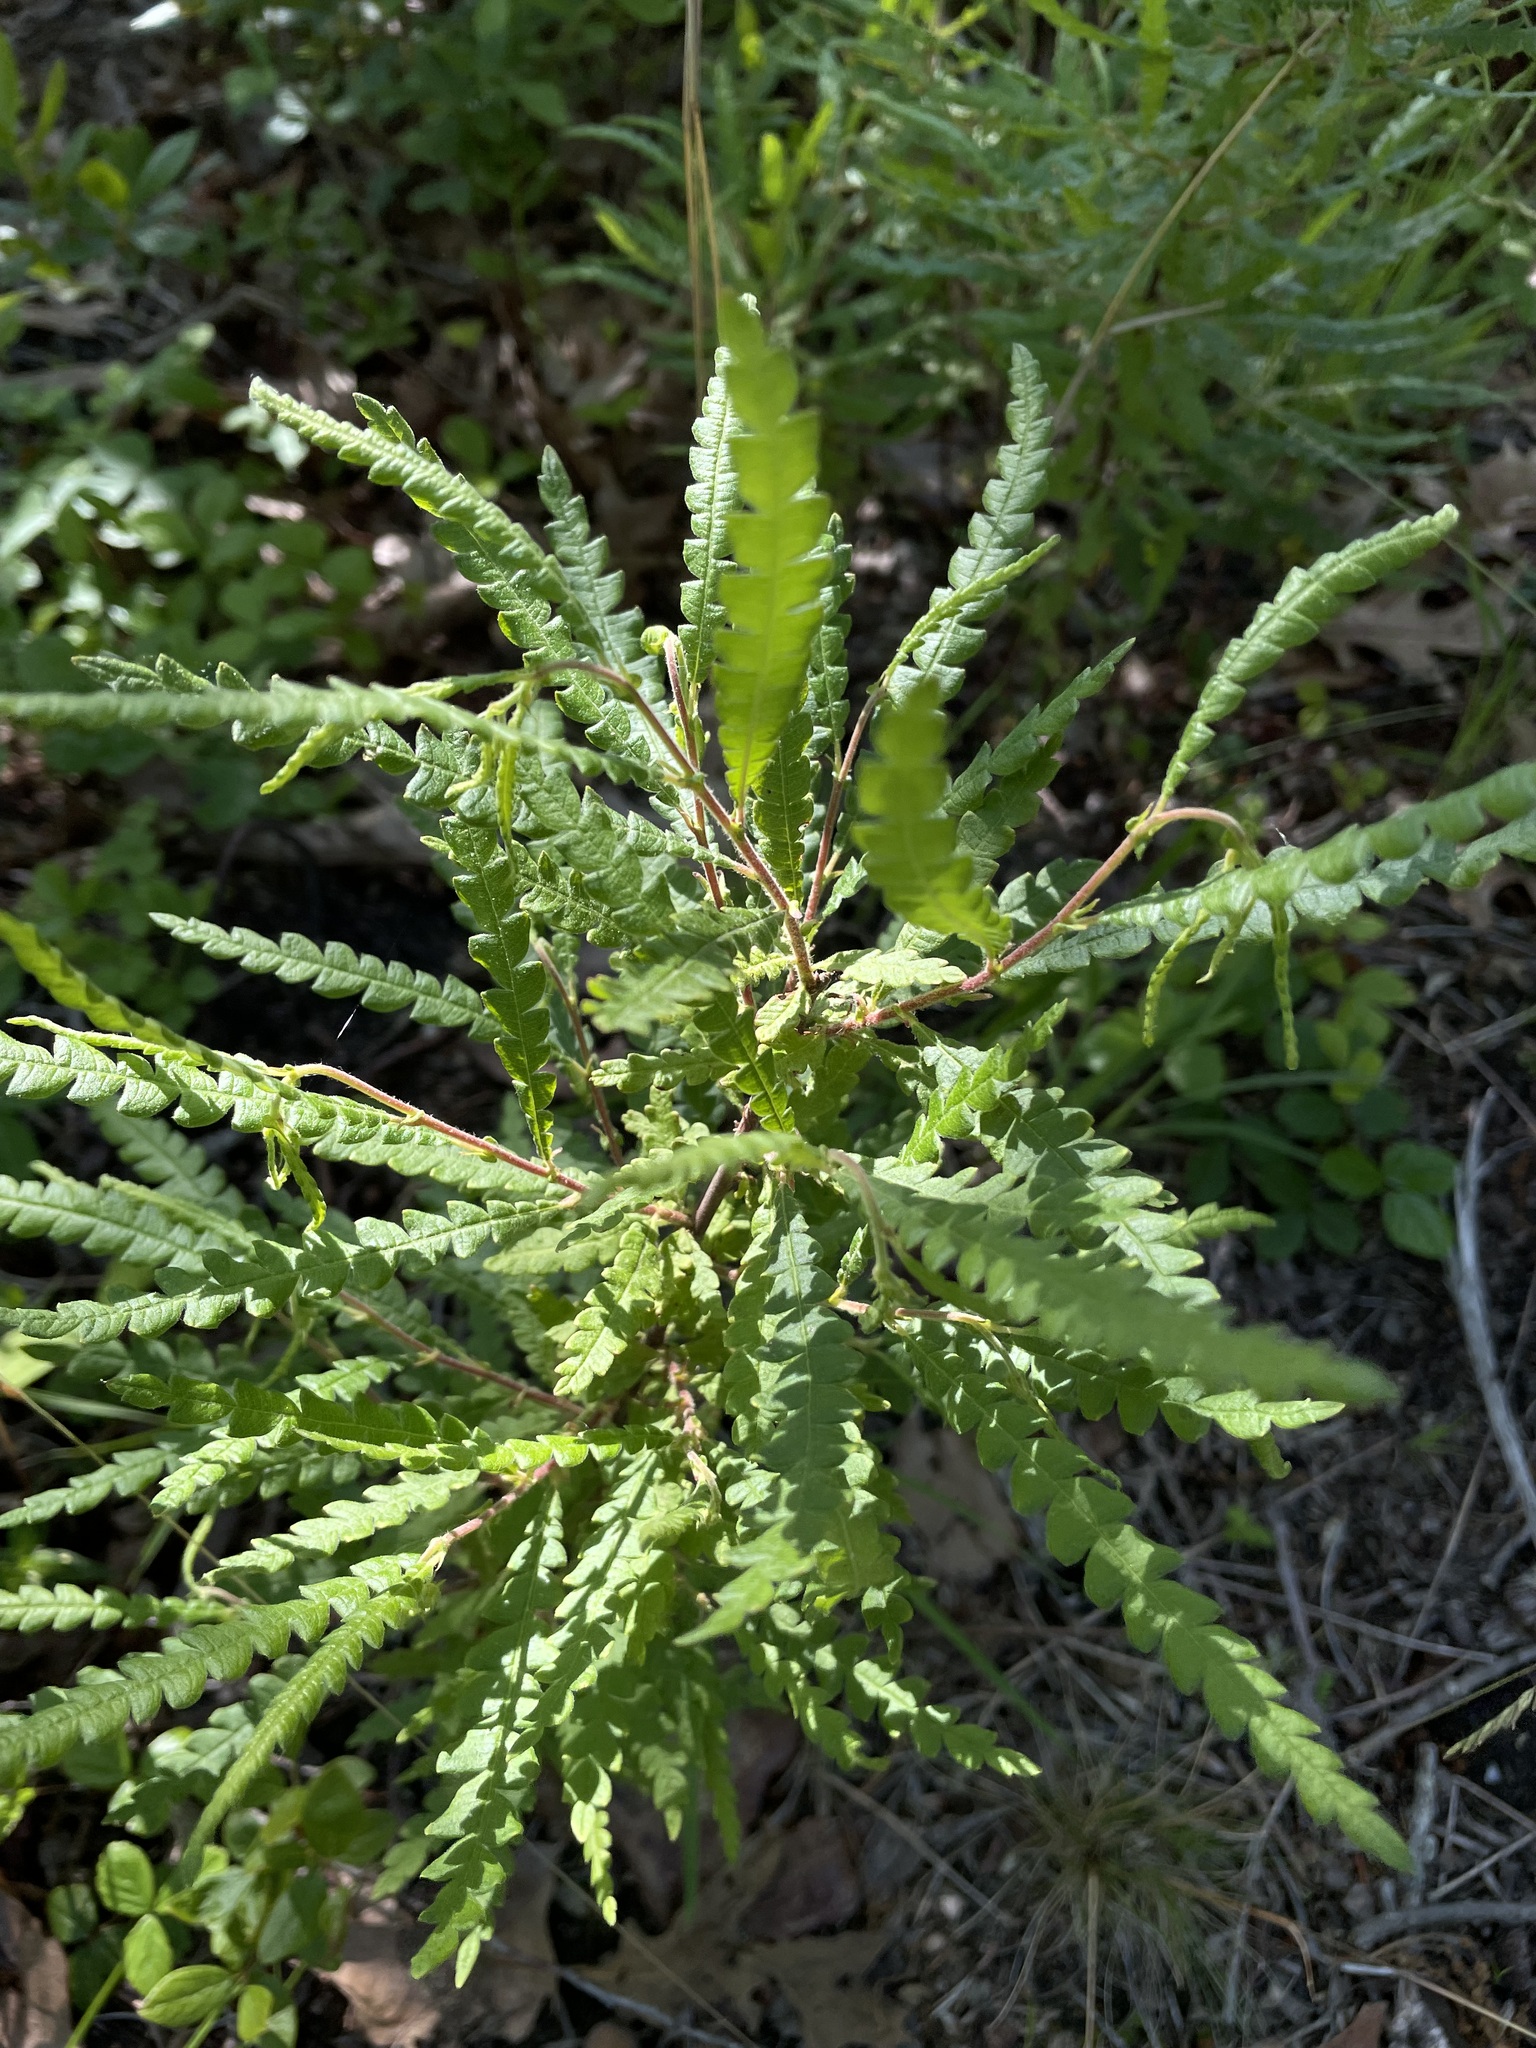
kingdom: Plantae
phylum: Tracheophyta
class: Magnoliopsida
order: Fagales
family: Myricaceae
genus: Comptonia
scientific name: Comptonia peregrina
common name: Sweet-fern
